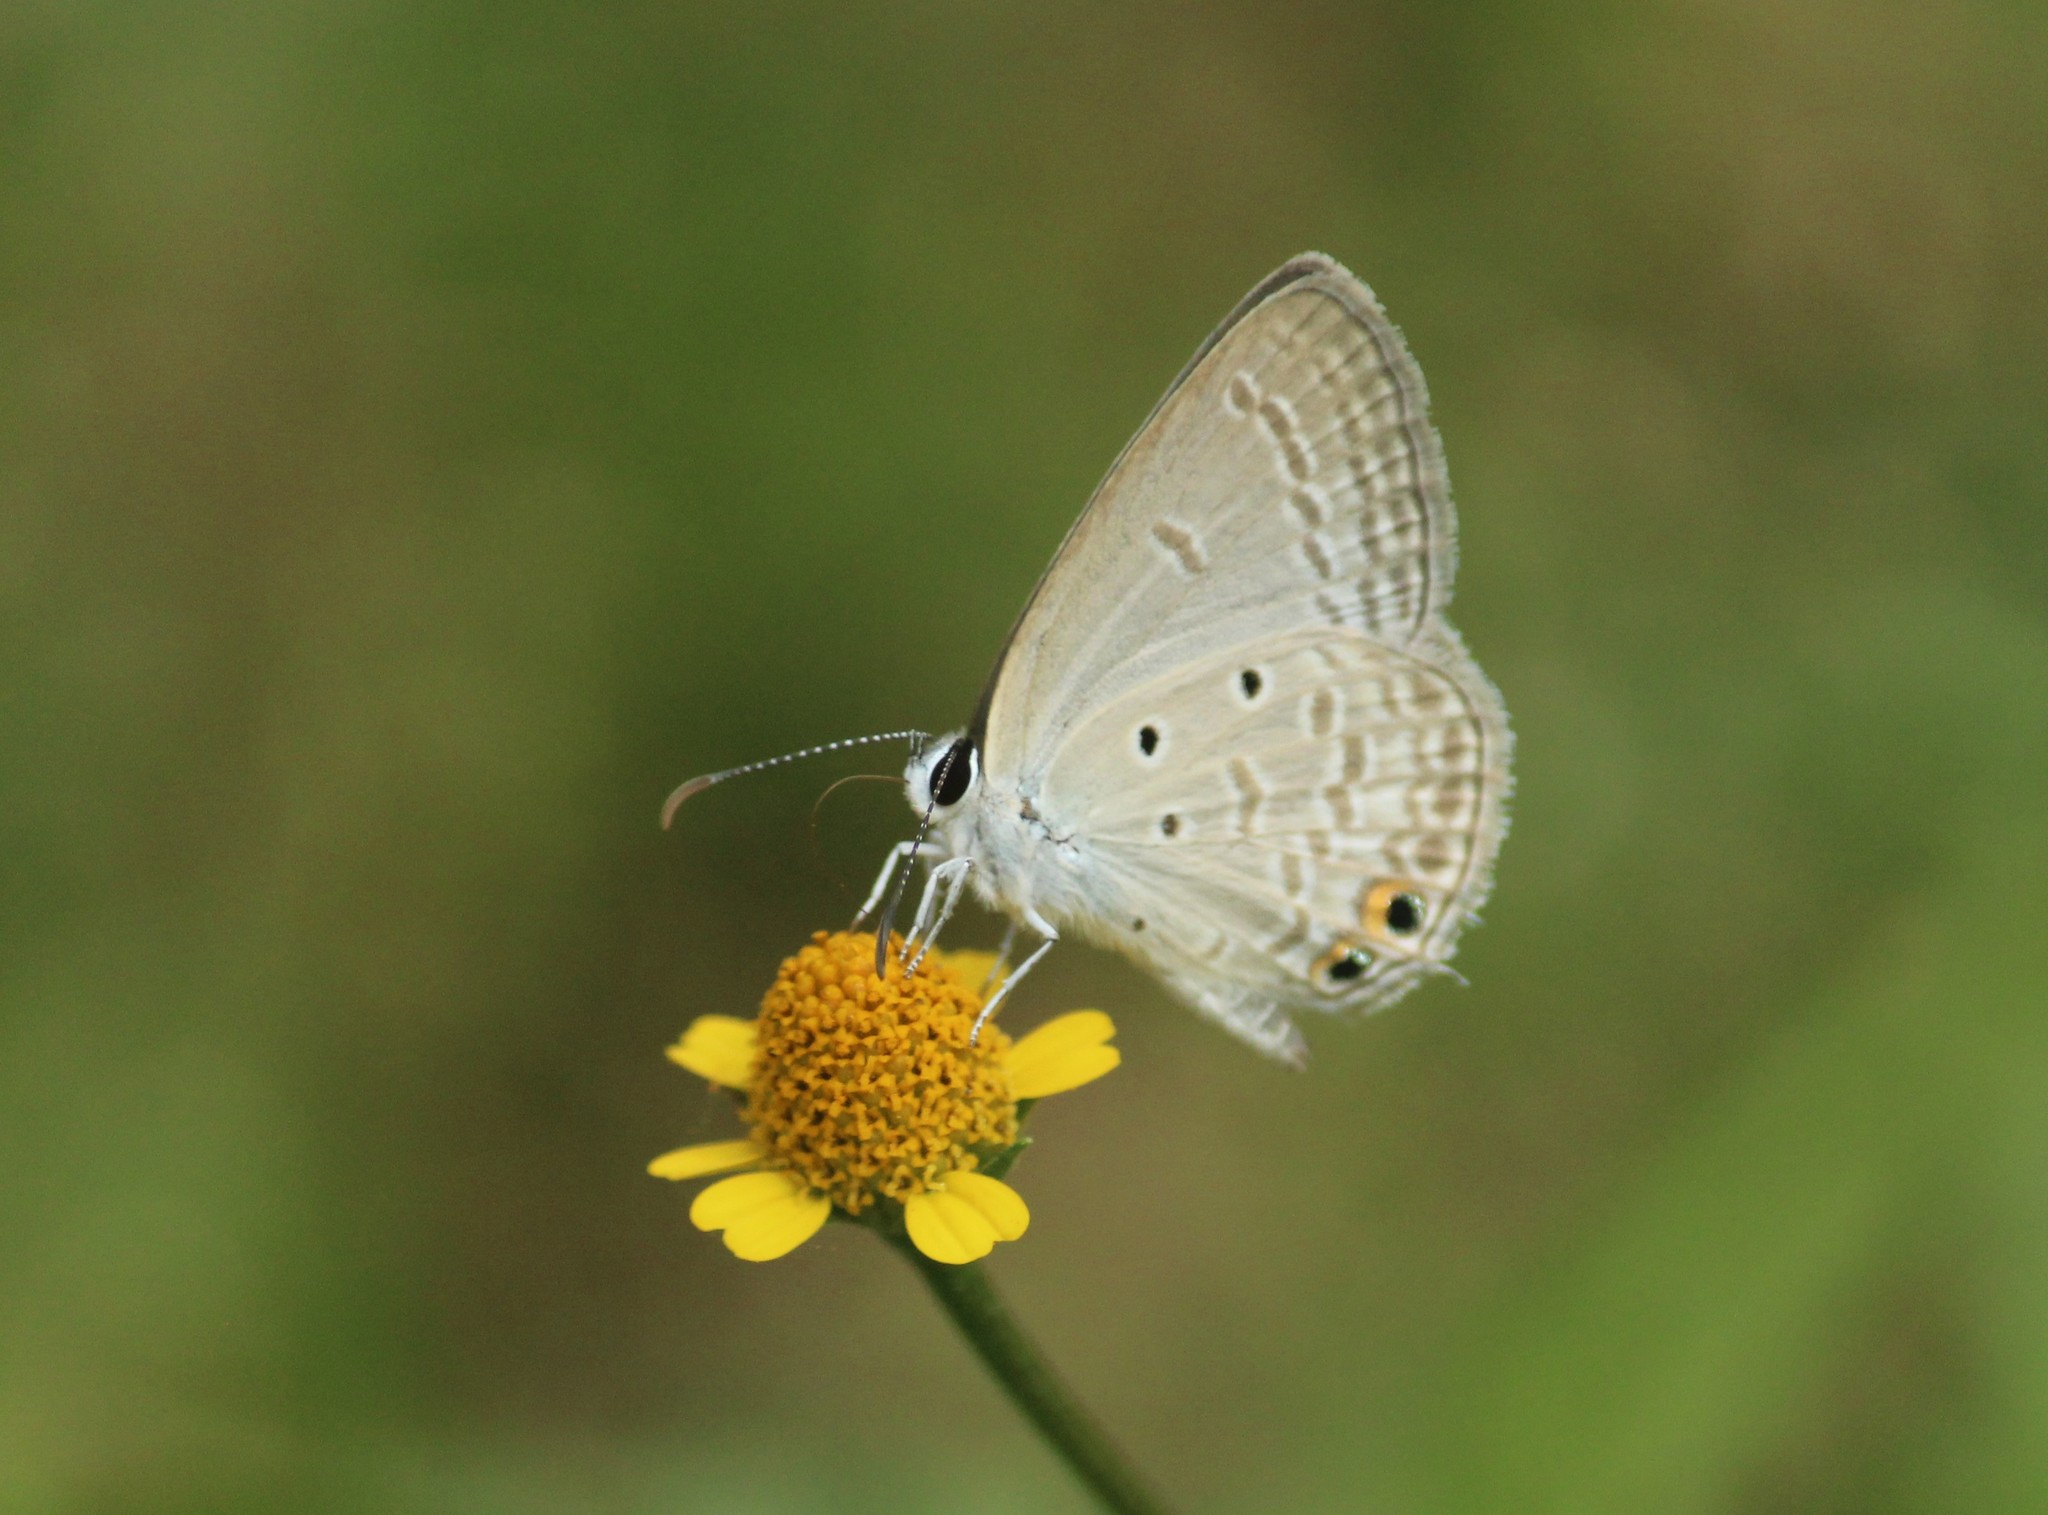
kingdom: Animalia
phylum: Arthropoda
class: Insecta
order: Lepidoptera
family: Lycaenidae
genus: Euchrysops
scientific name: Euchrysops cnejus
